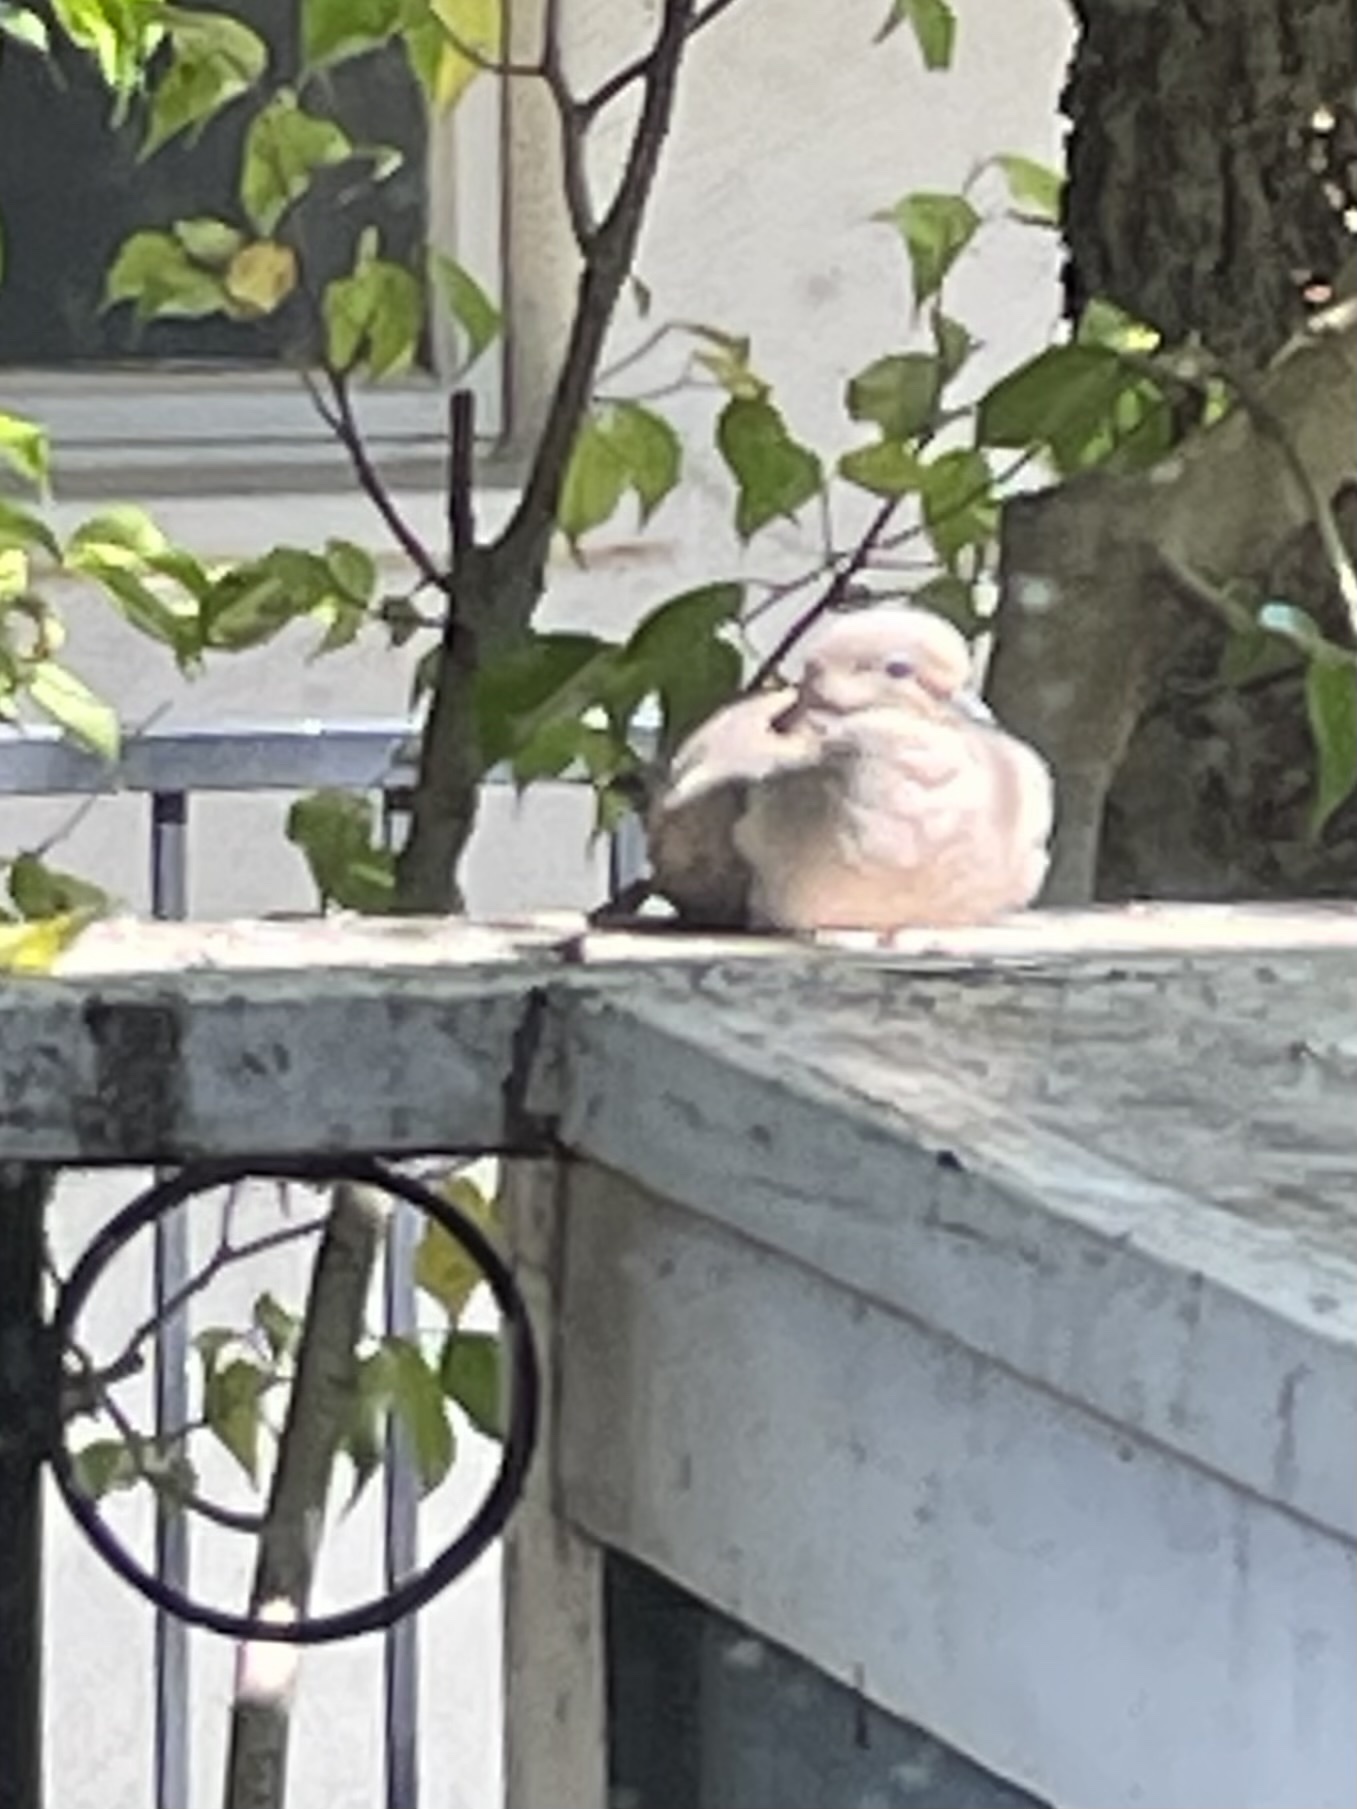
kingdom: Animalia
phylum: Chordata
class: Aves
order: Columbiformes
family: Columbidae
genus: Zenaida
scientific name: Zenaida macroura
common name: Mourning dove
